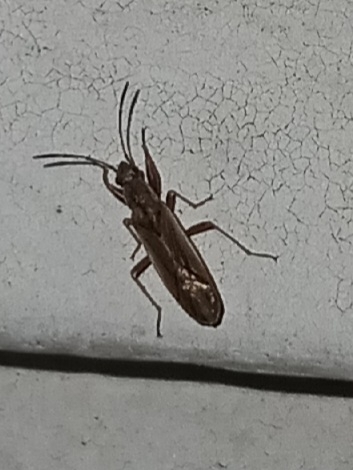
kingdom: Animalia
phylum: Arthropoda
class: Insecta
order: Hemiptera
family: Rhyparochromidae
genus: Paromius
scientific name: Paromius longulus
